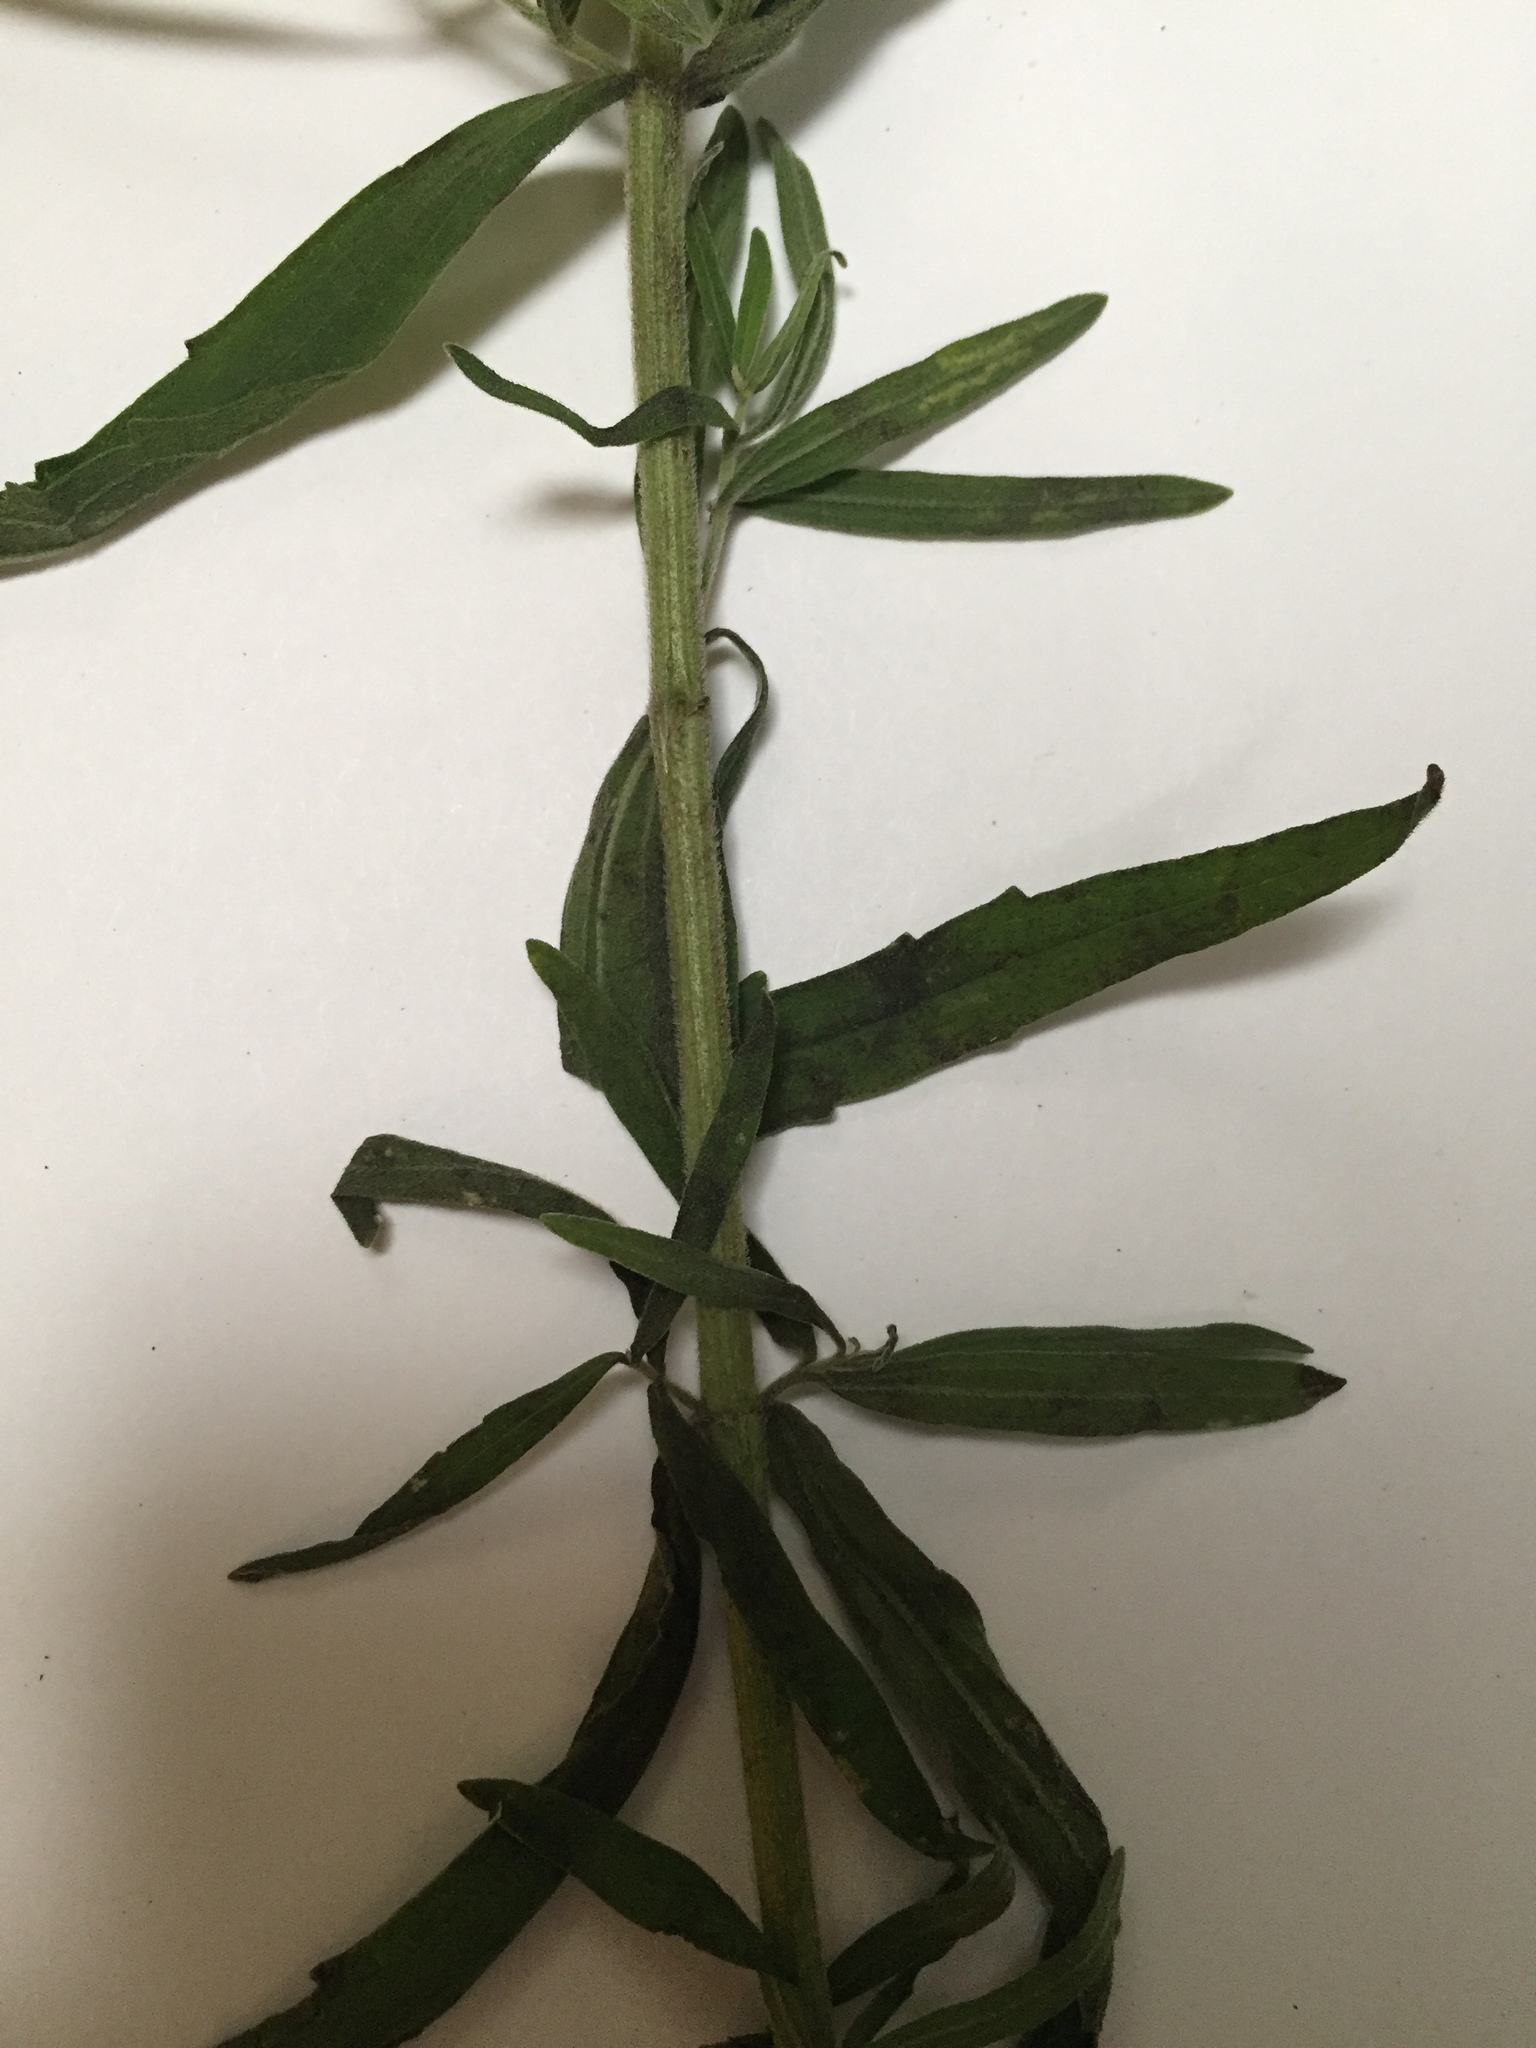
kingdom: Plantae
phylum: Tracheophyta
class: Magnoliopsida
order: Asterales
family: Asteraceae
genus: Eupatorium
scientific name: Eupatorium torreyanum
